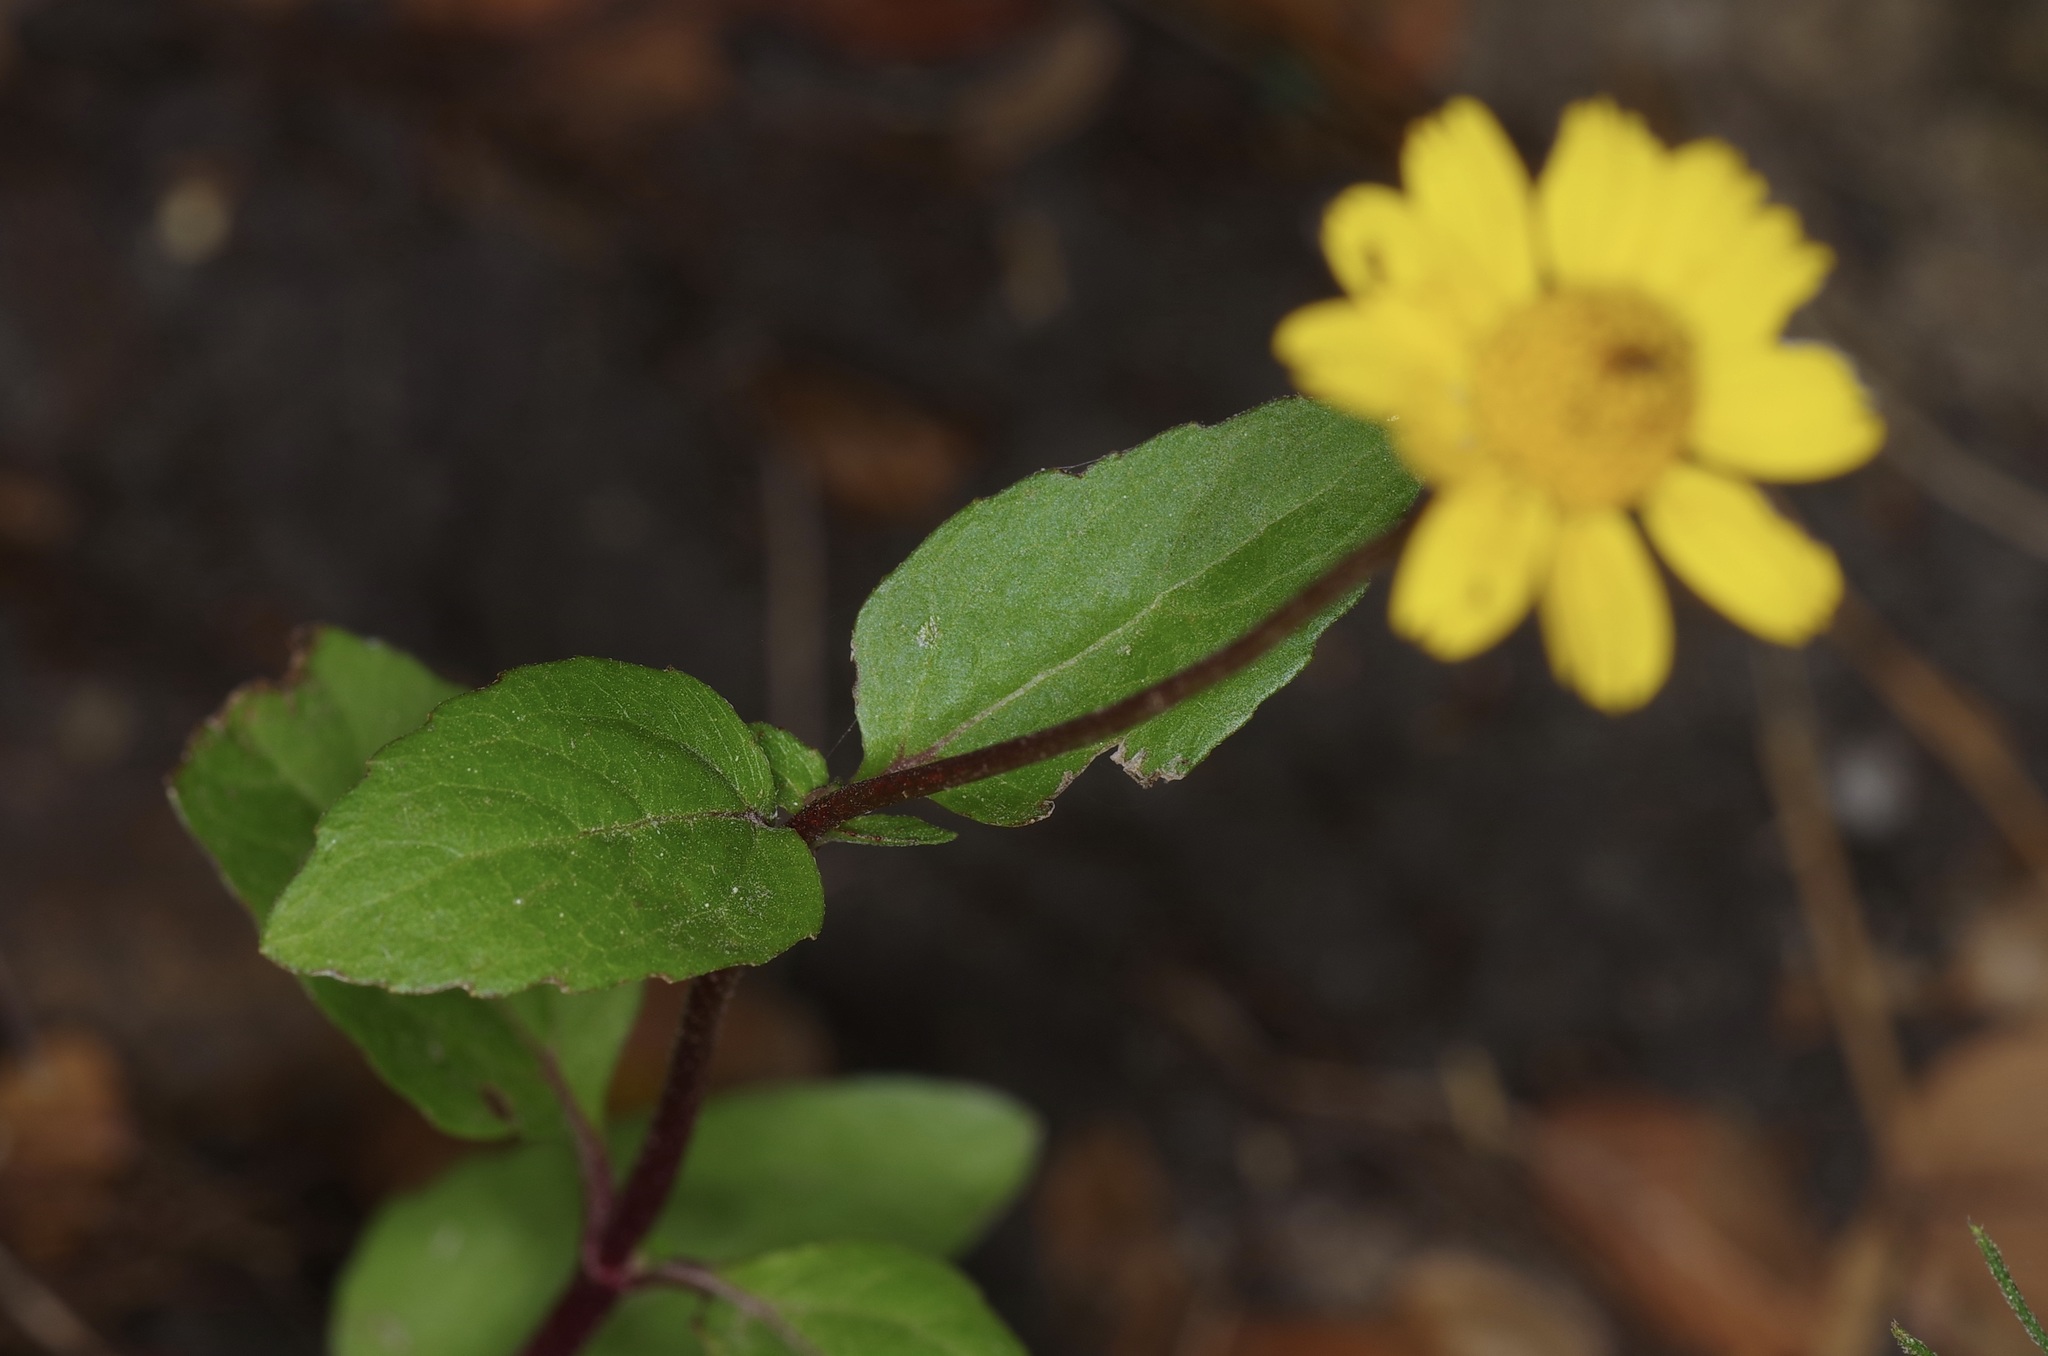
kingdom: Plantae
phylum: Tracheophyta
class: Magnoliopsida
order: Asterales
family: Asteraceae
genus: Acmella
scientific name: Acmella repens
